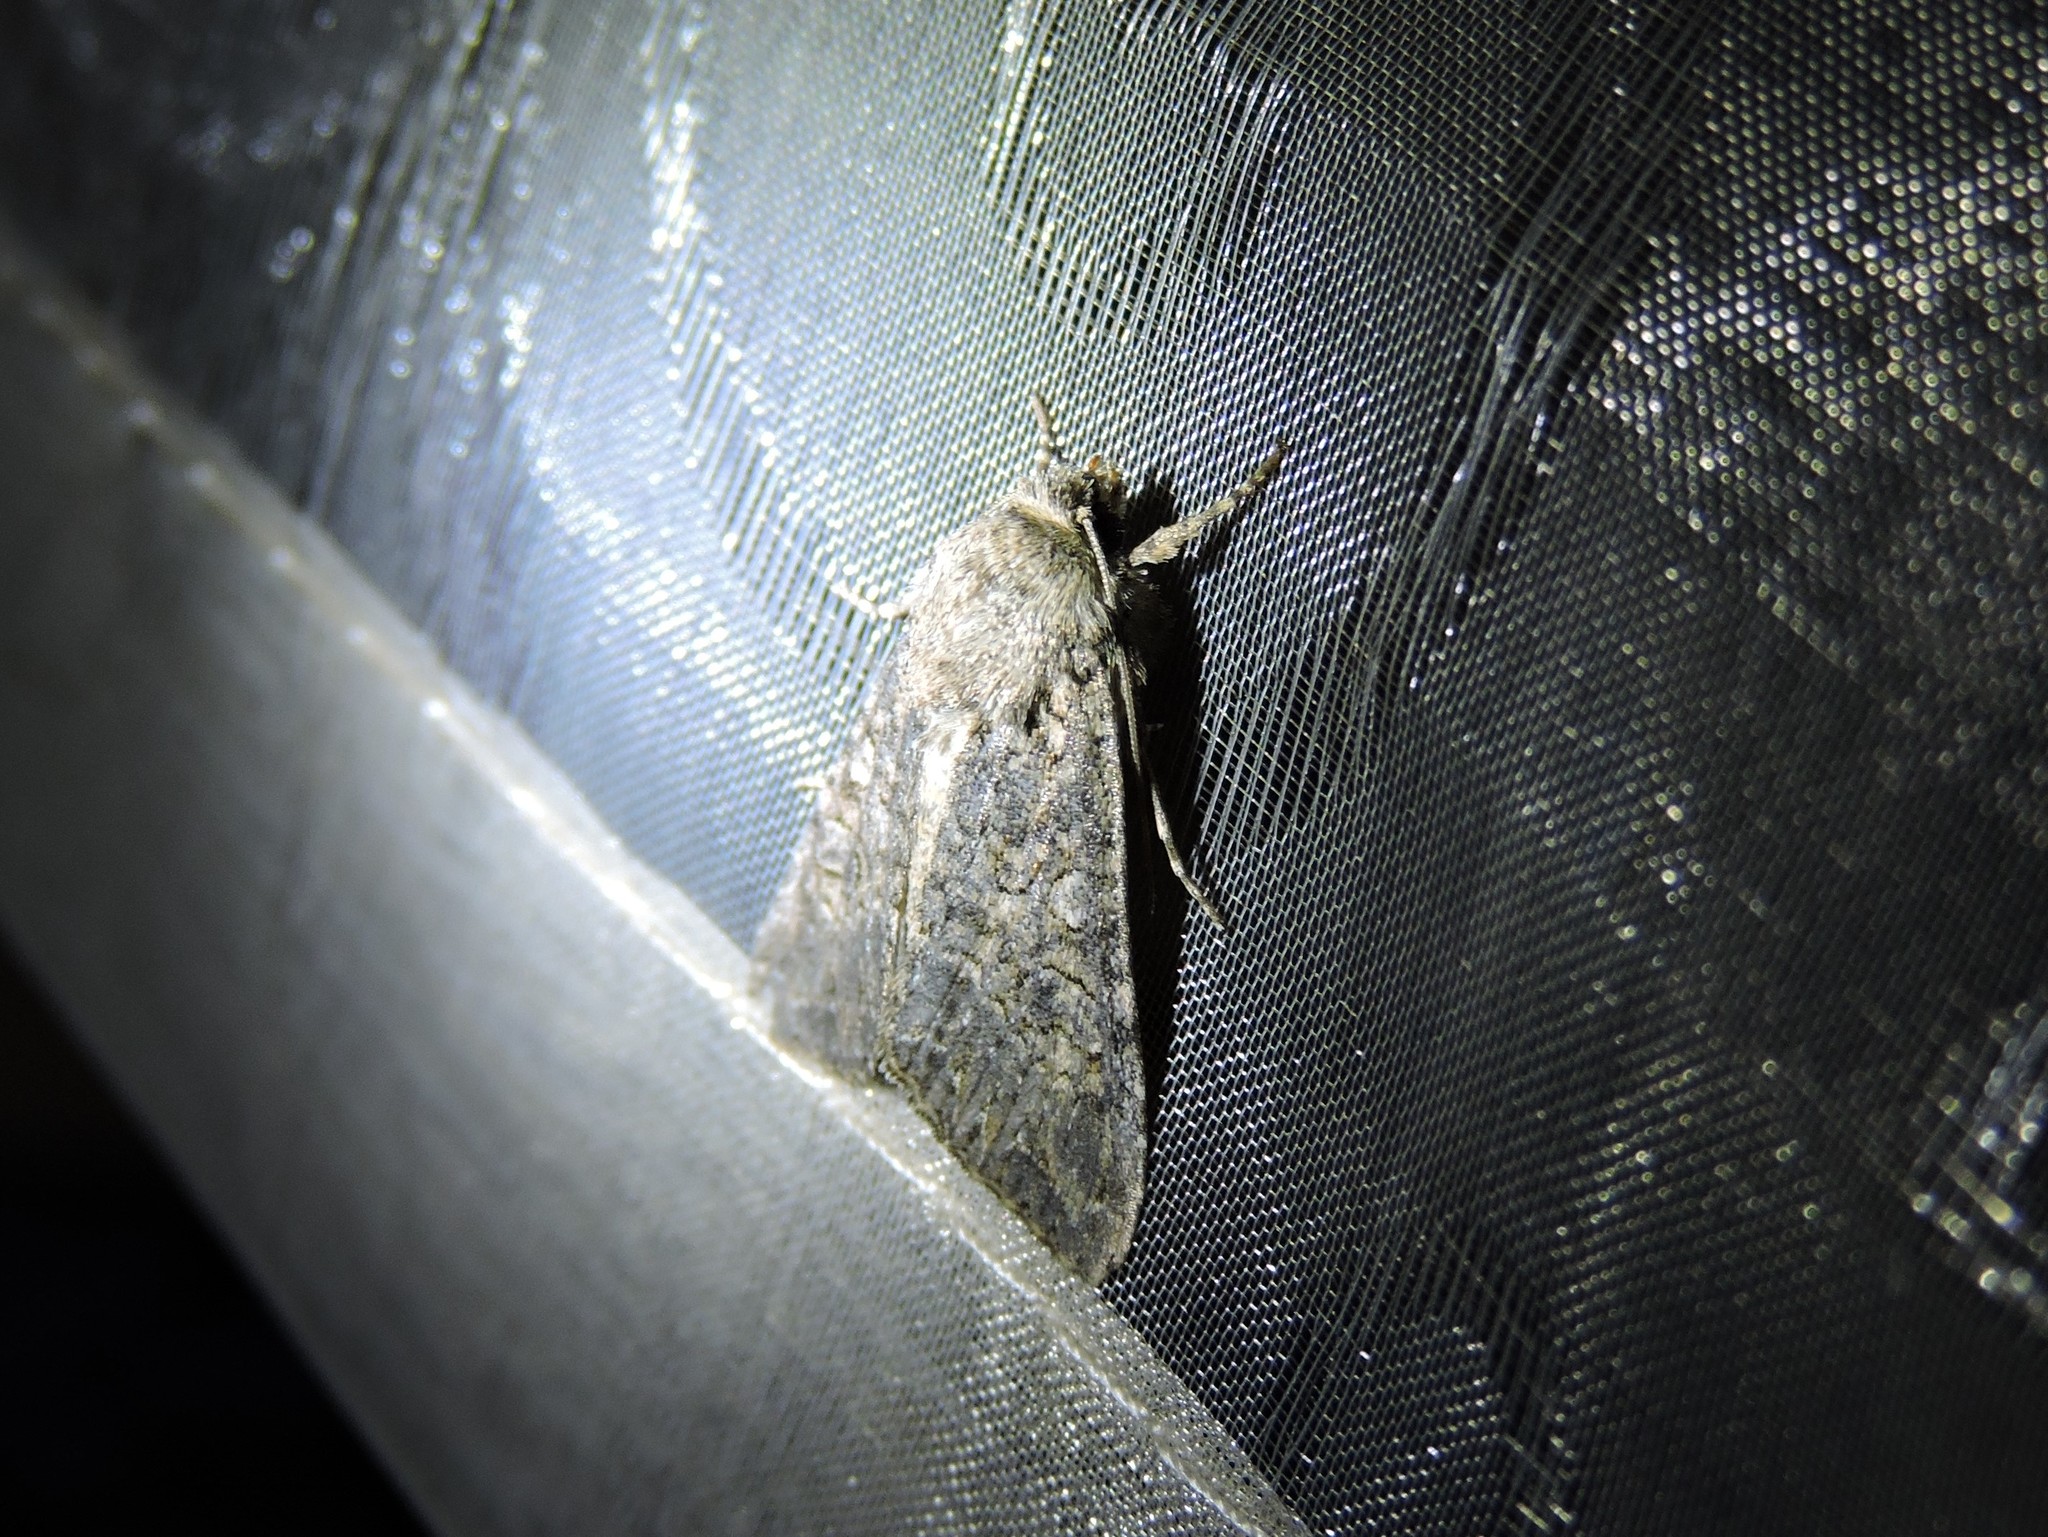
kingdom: Animalia
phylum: Arthropoda
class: Insecta
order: Lepidoptera
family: Noctuidae
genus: Anarta
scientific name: Anarta trifolii
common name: Clover cutworm moth
